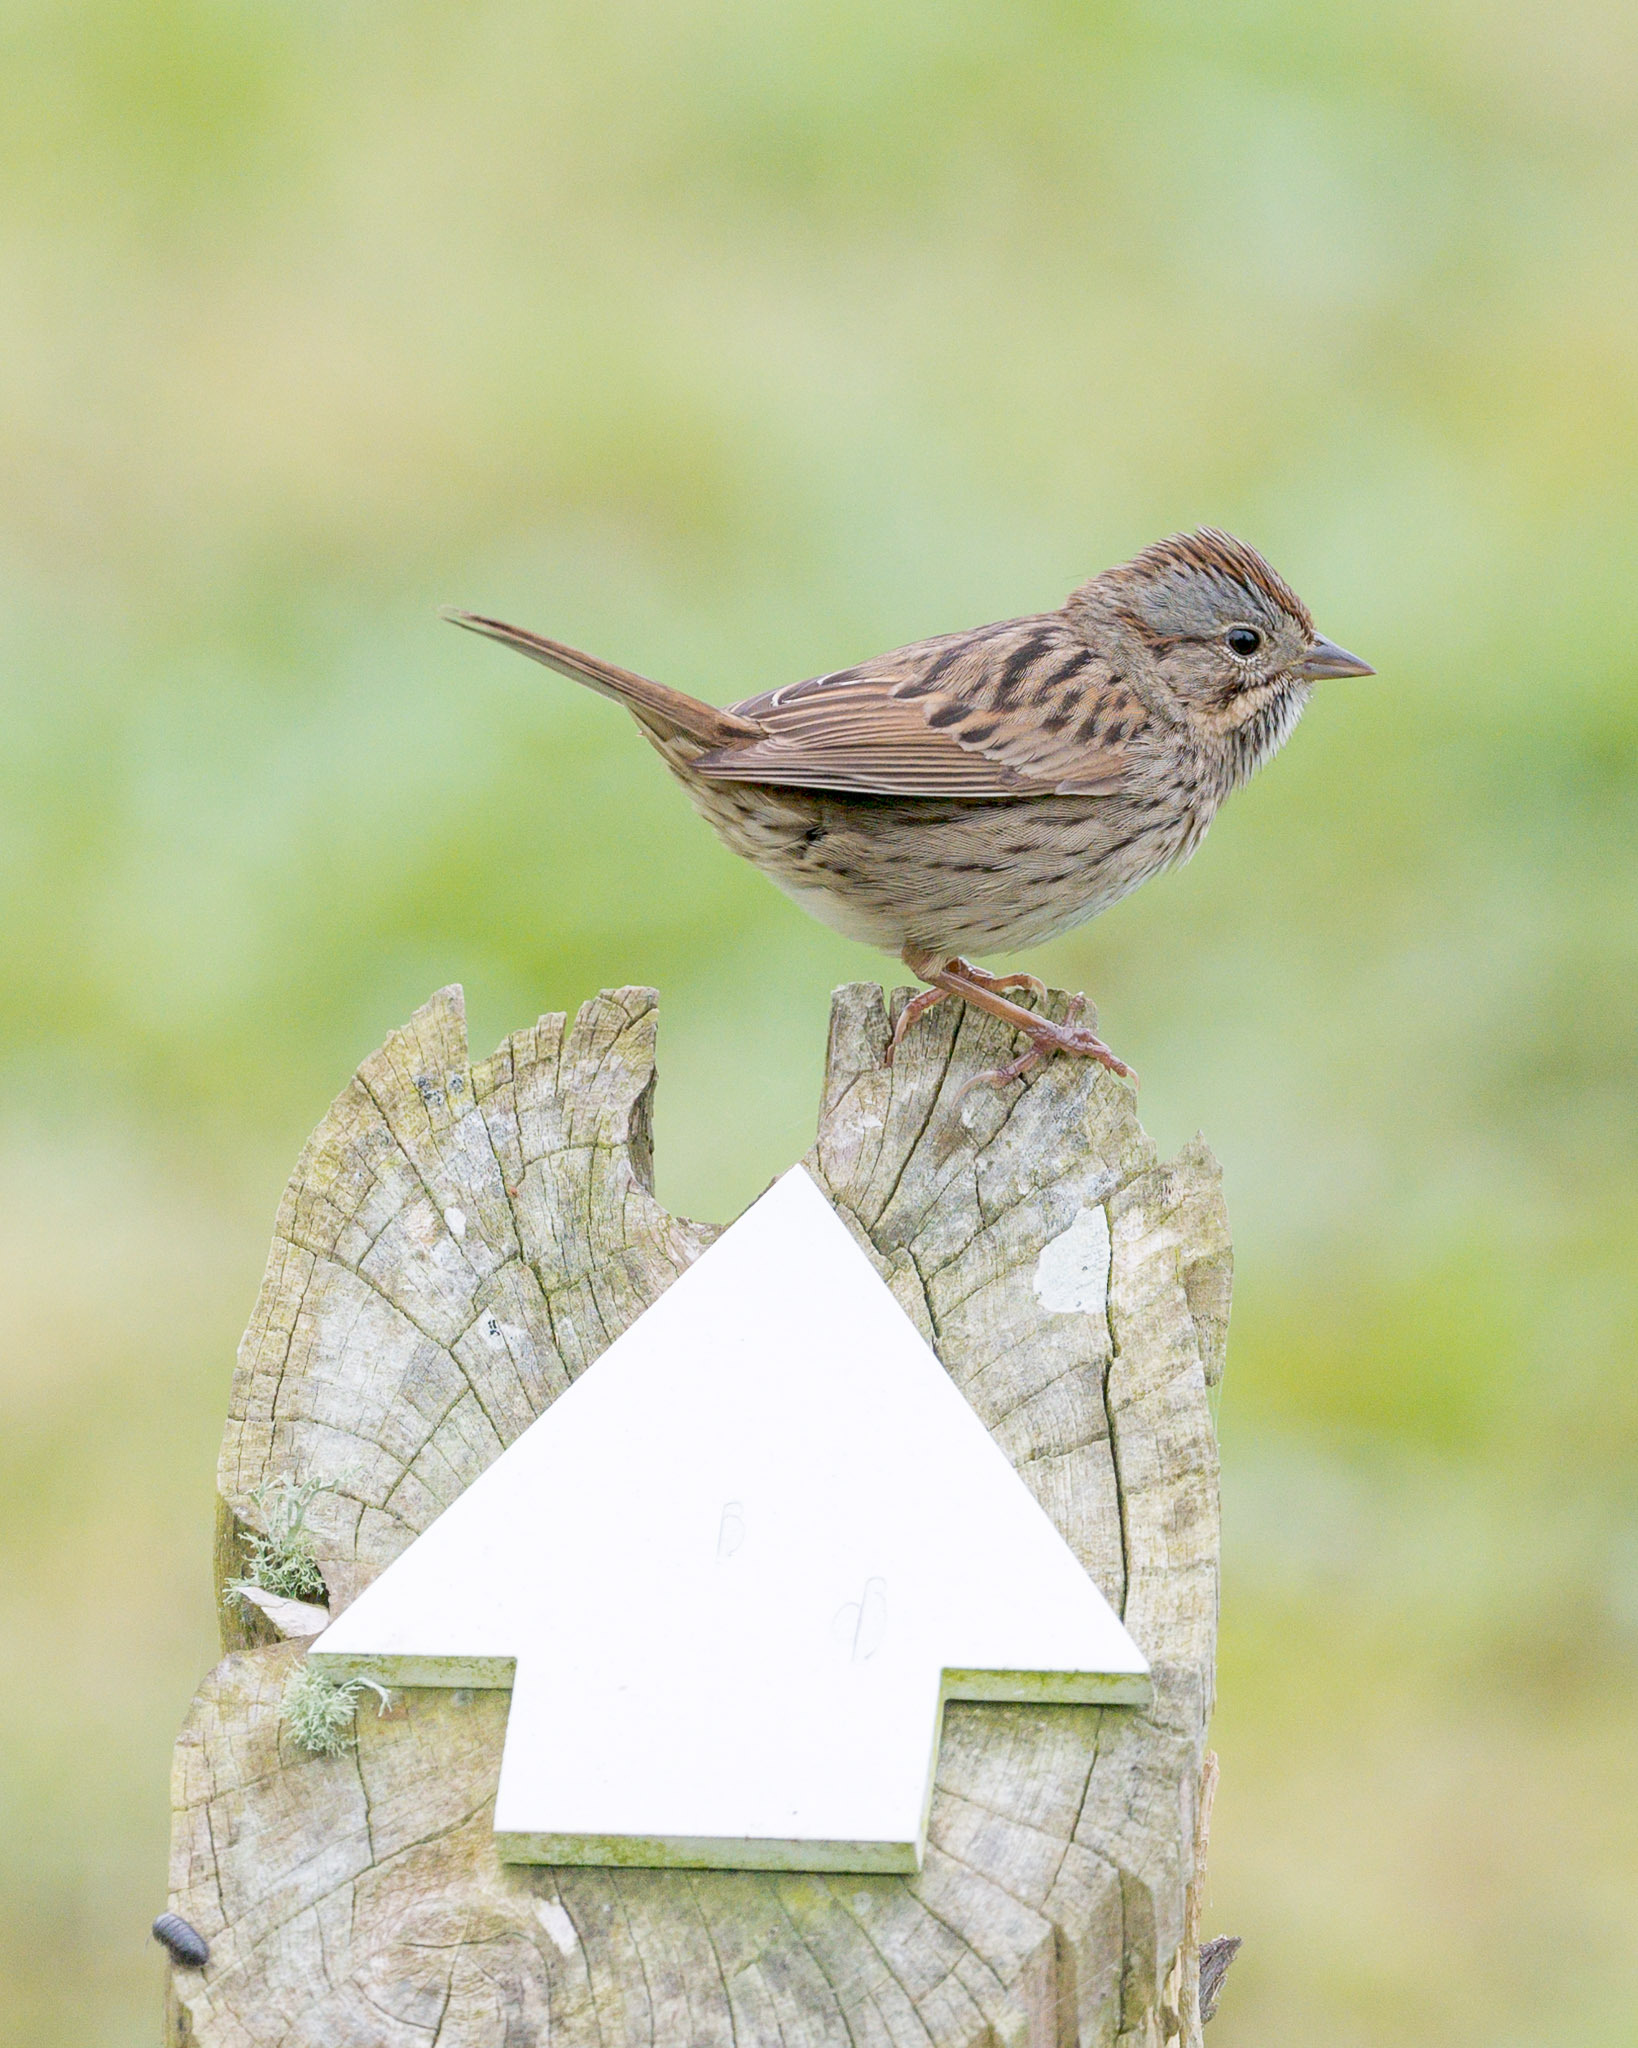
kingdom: Animalia
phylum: Chordata
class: Aves
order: Passeriformes
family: Passerellidae
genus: Melospiza
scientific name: Melospiza lincolnii
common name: Lincoln's sparrow
